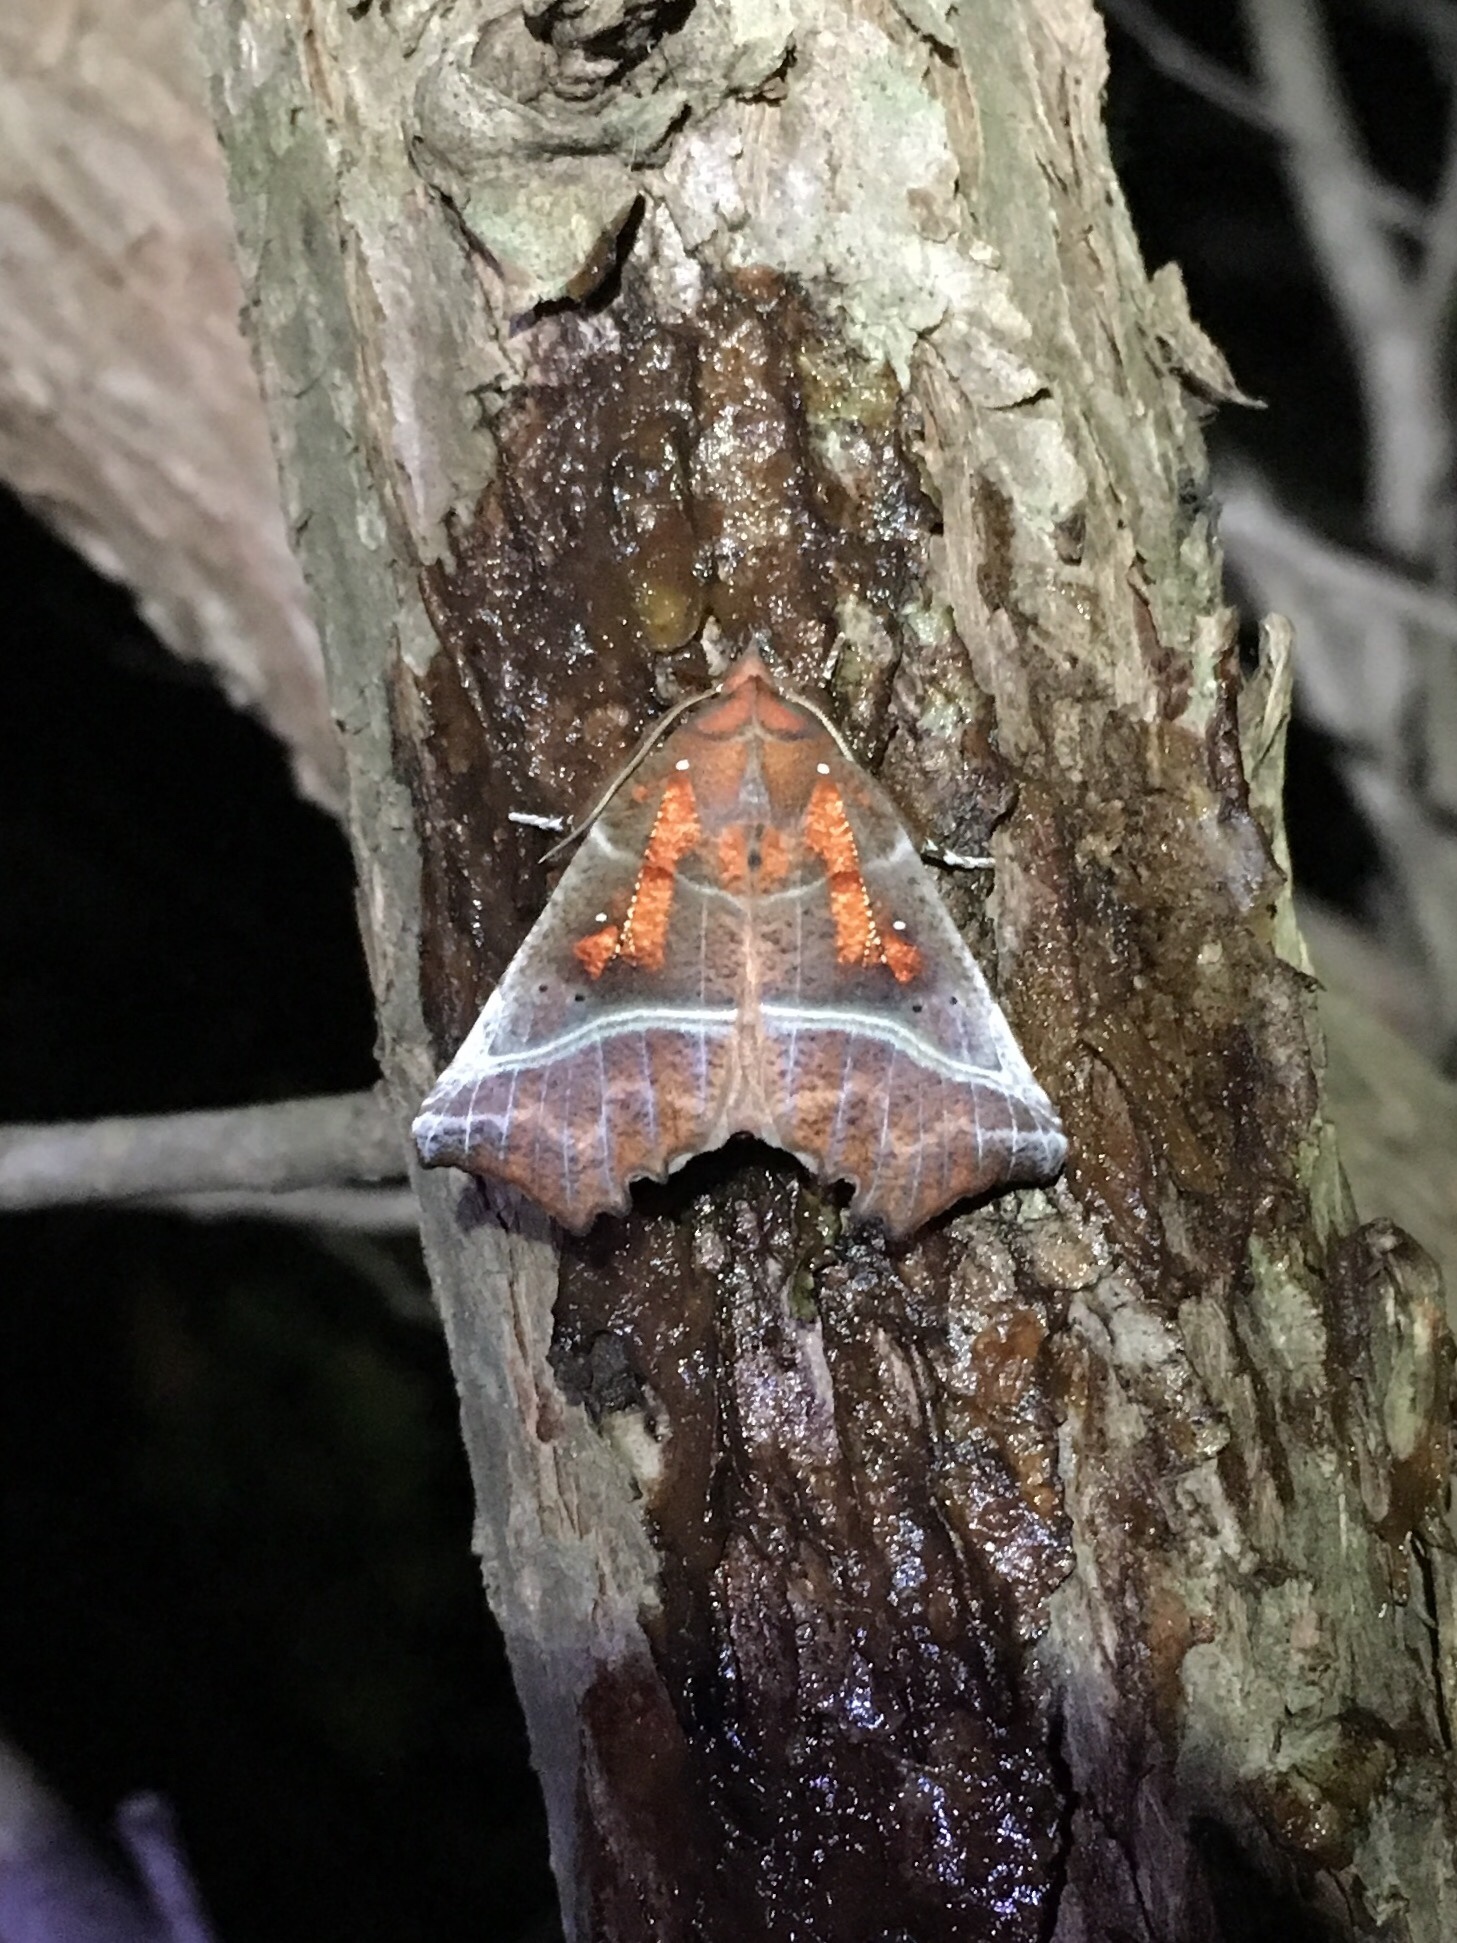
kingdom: Animalia
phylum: Arthropoda
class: Insecta
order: Lepidoptera
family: Erebidae
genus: Scoliopteryx
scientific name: Scoliopteryx libatrix
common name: Herald
